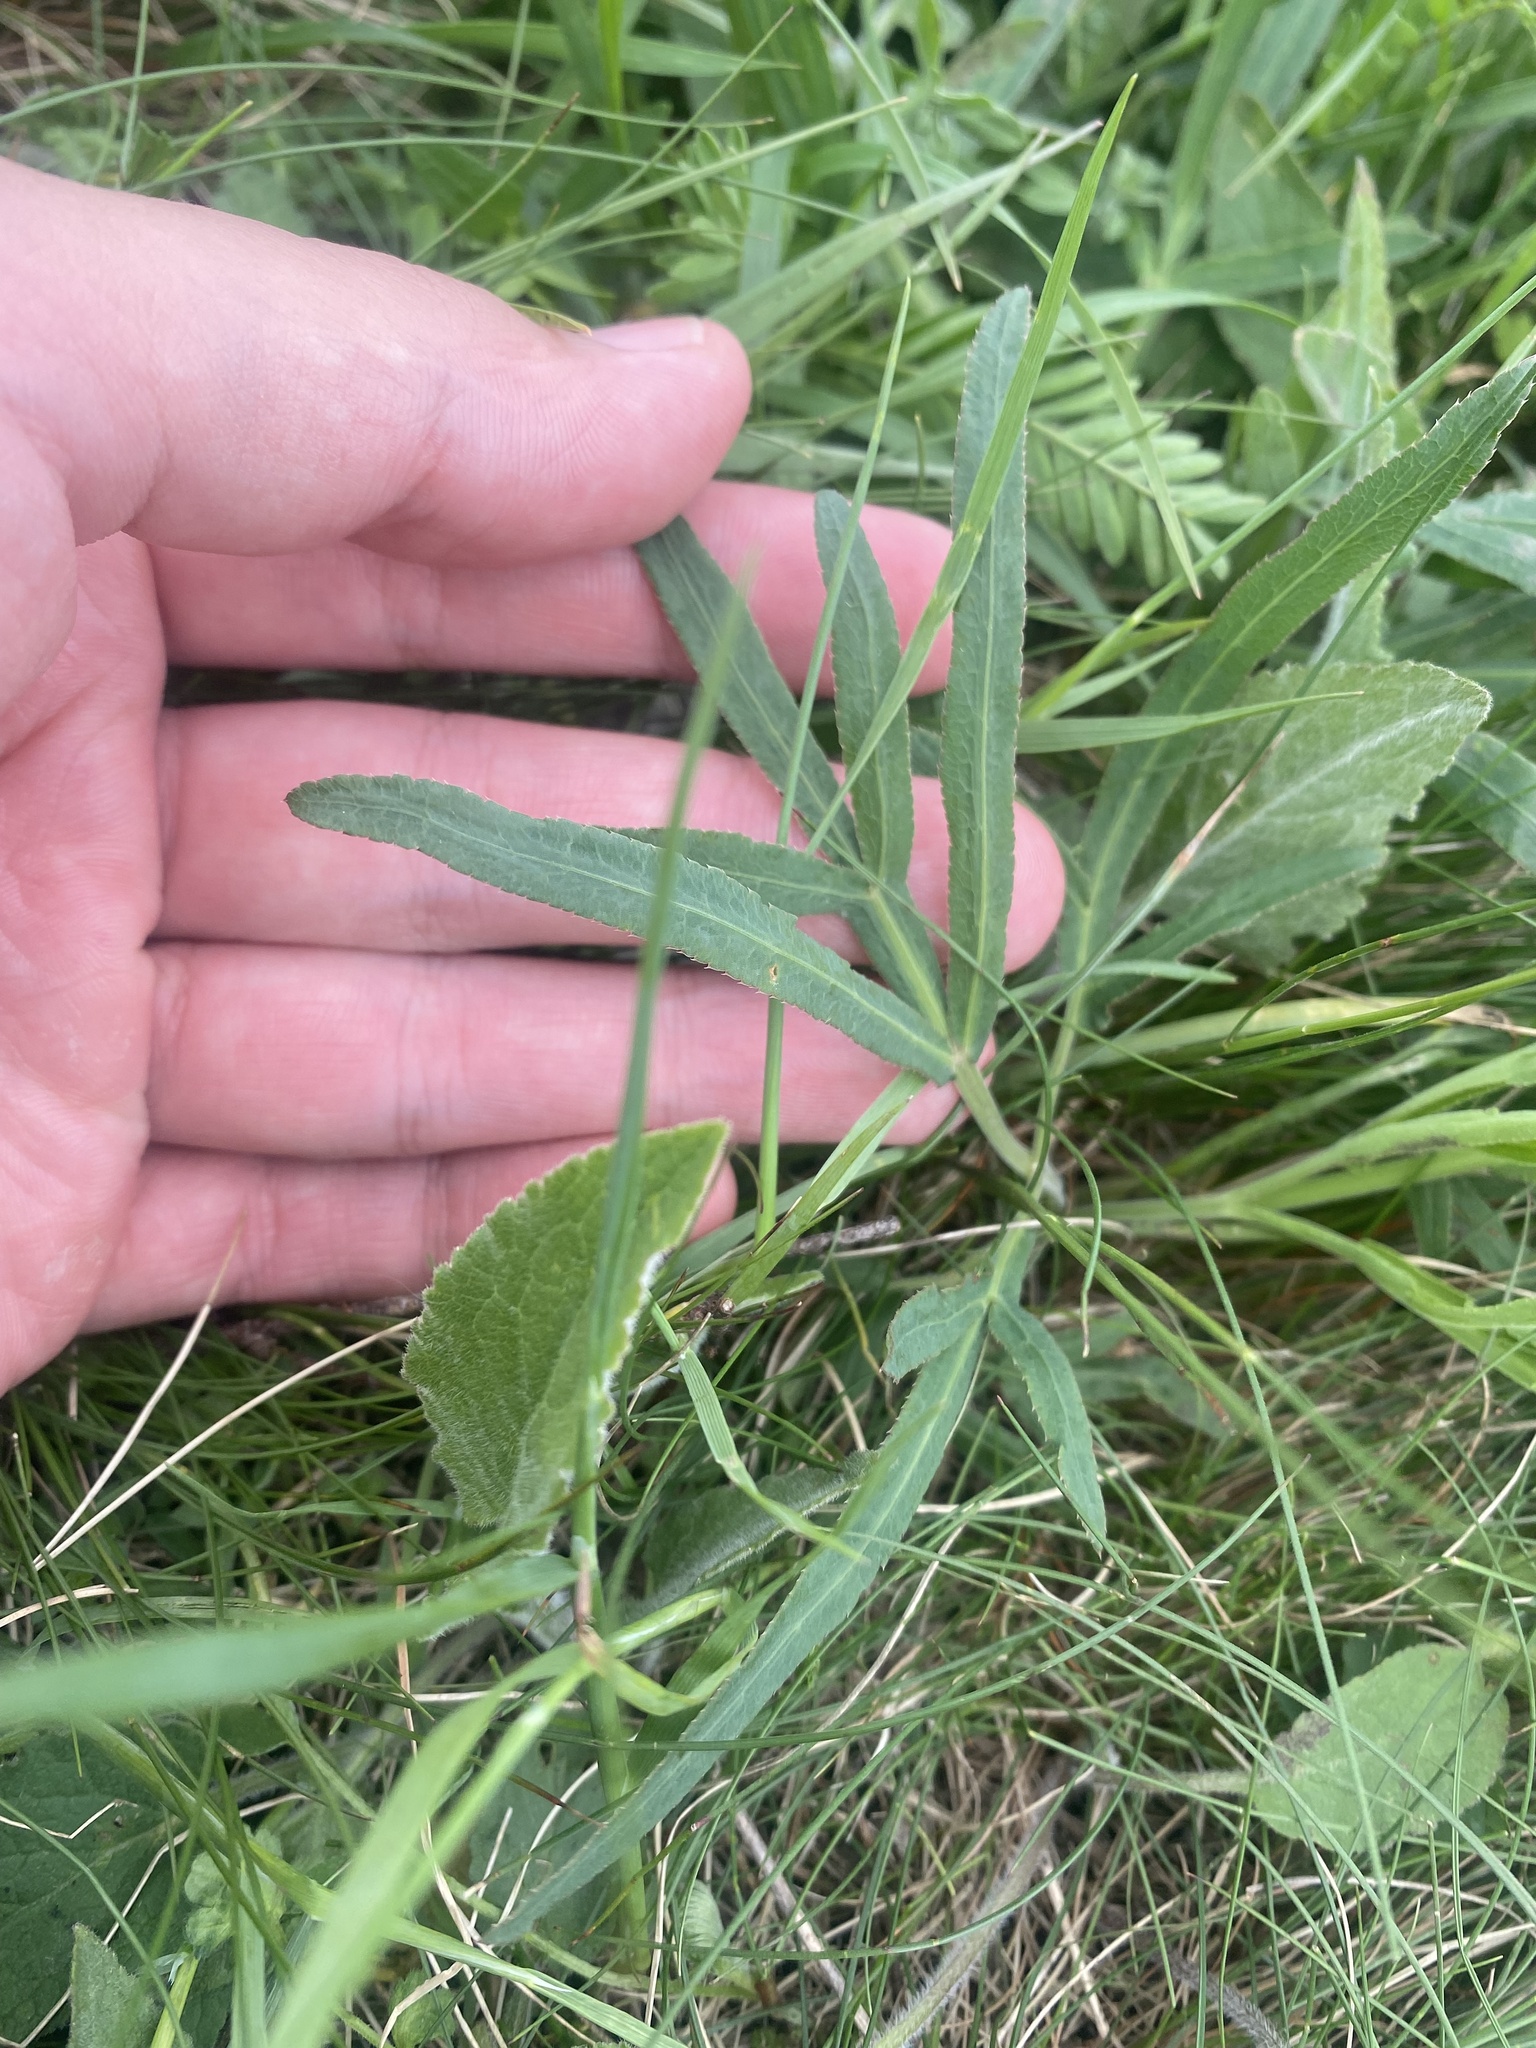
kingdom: Plantae
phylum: Tracheophyta
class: Magnoliopsida
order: Apiales
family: Apiaceae
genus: Falcaria
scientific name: Falcaria vulgaris
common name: Longleaf
